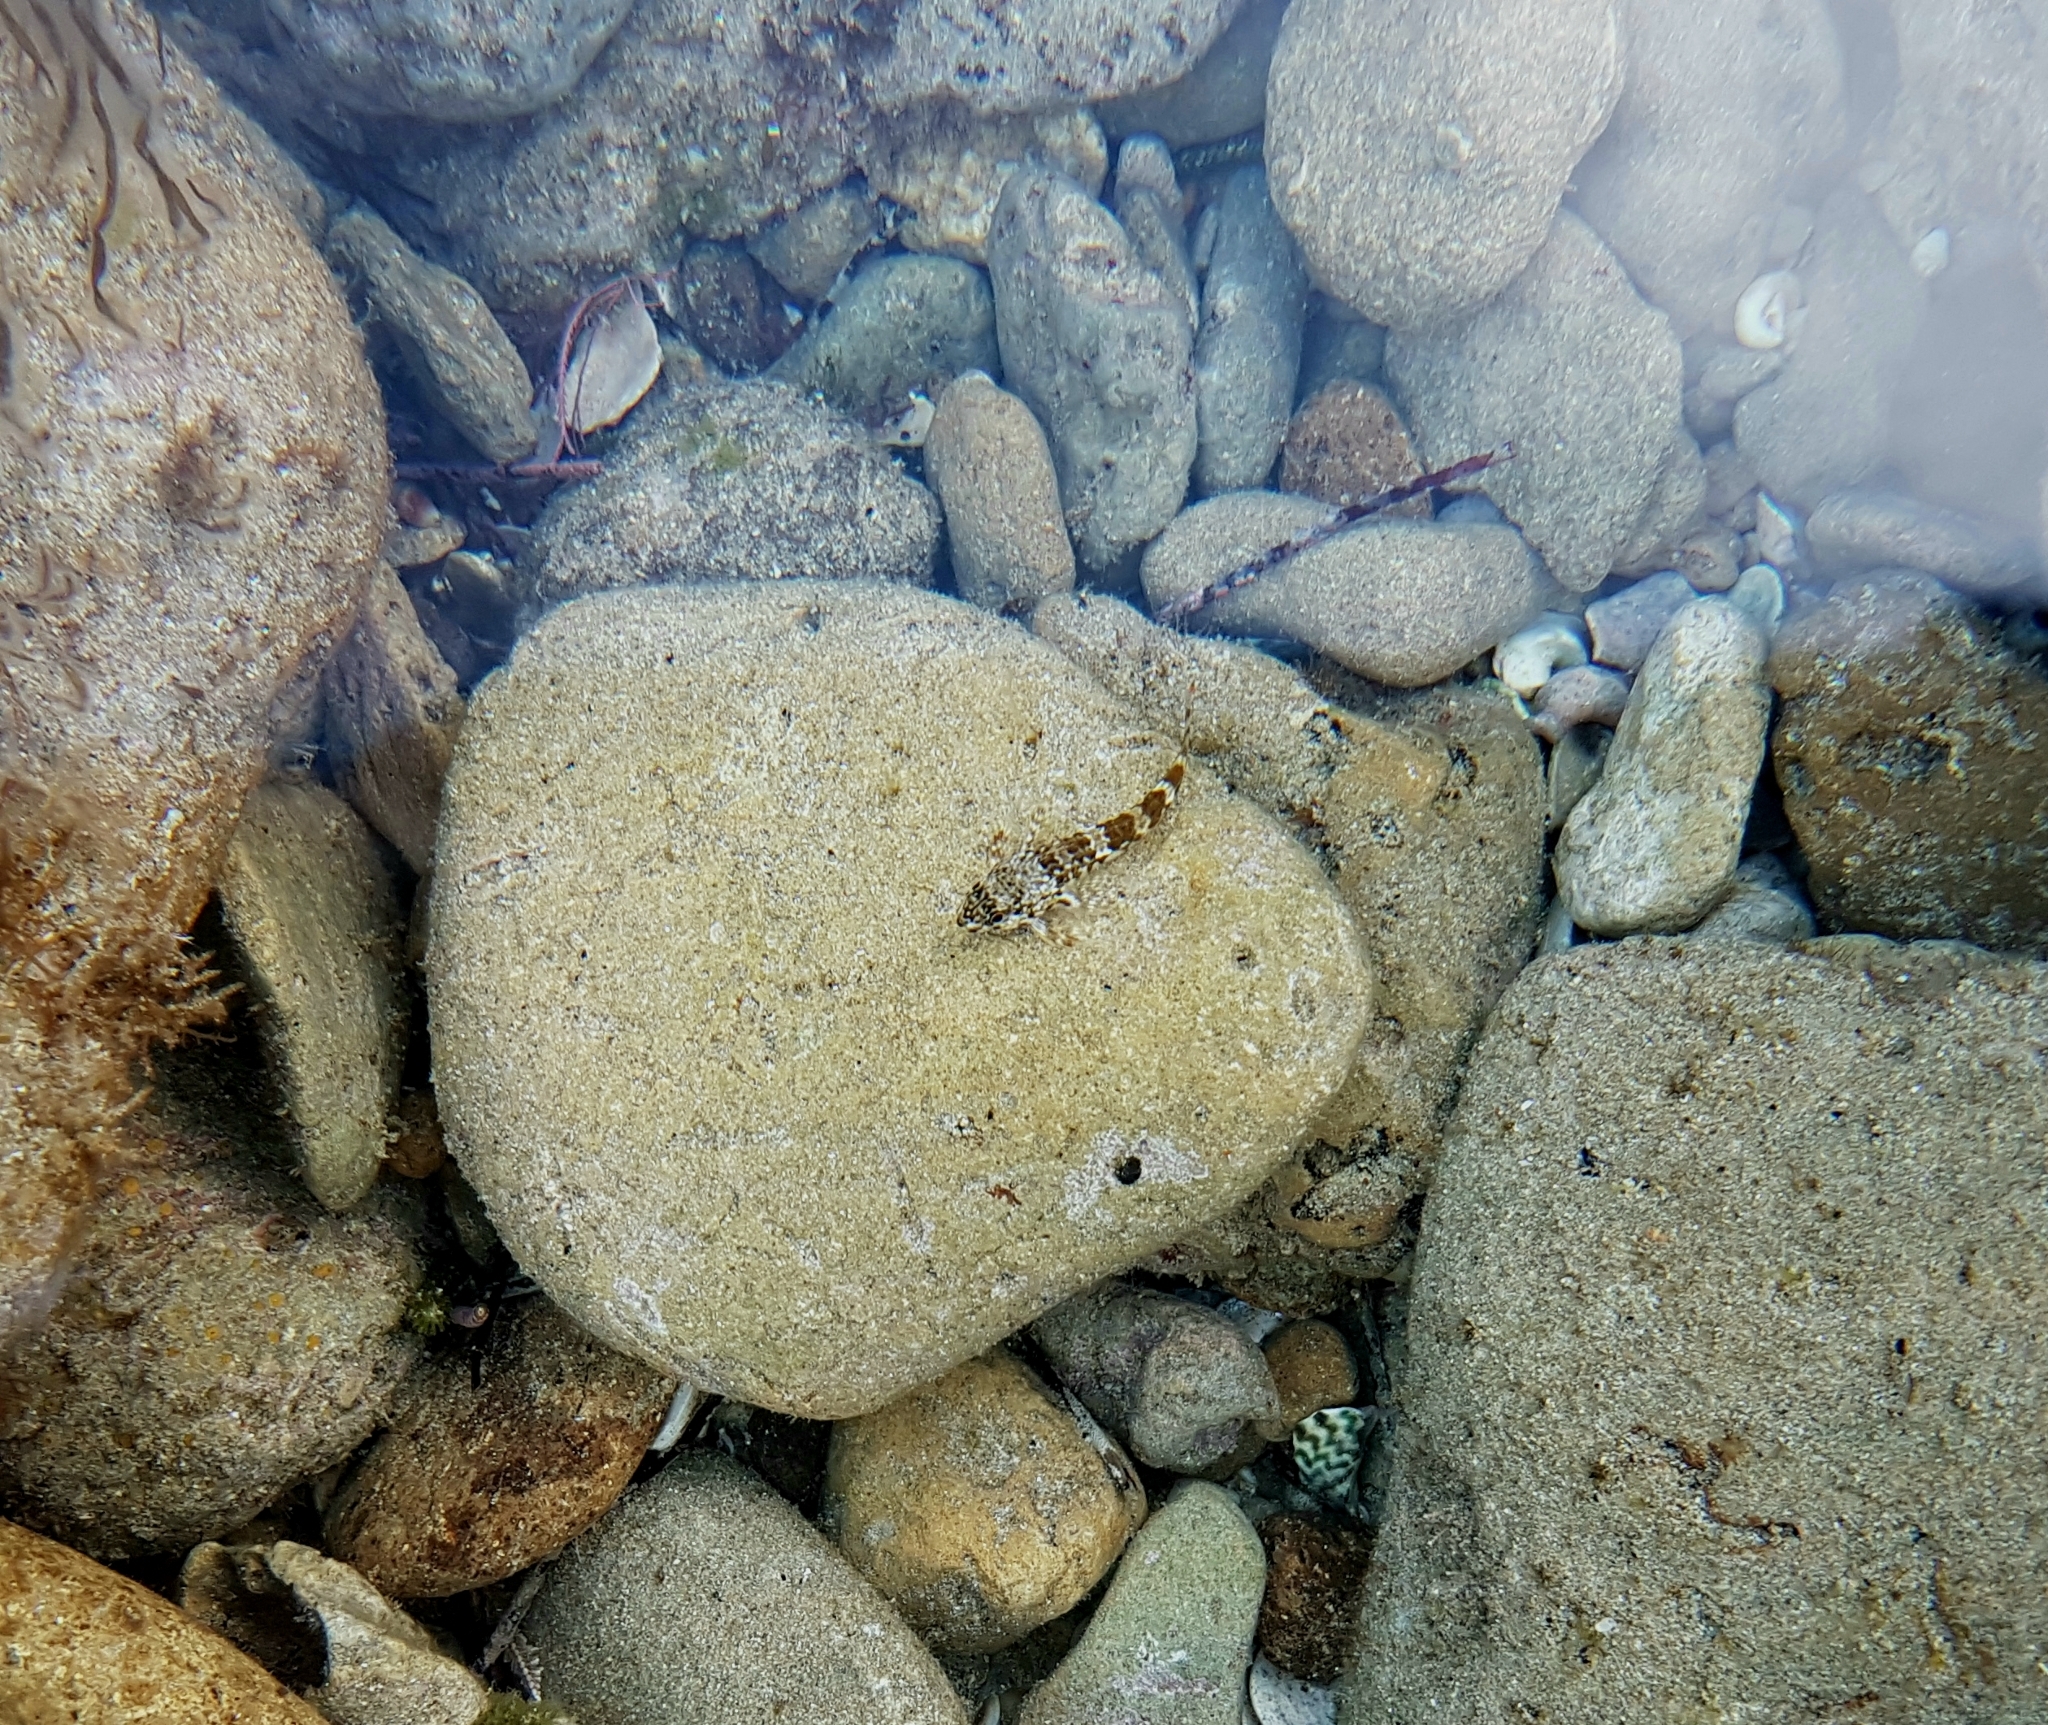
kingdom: Animalia
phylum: Chordata
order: Perciformes
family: Bovichtidae
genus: Bovichtus
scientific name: Bovichtus angustifrons
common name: Dragonet
